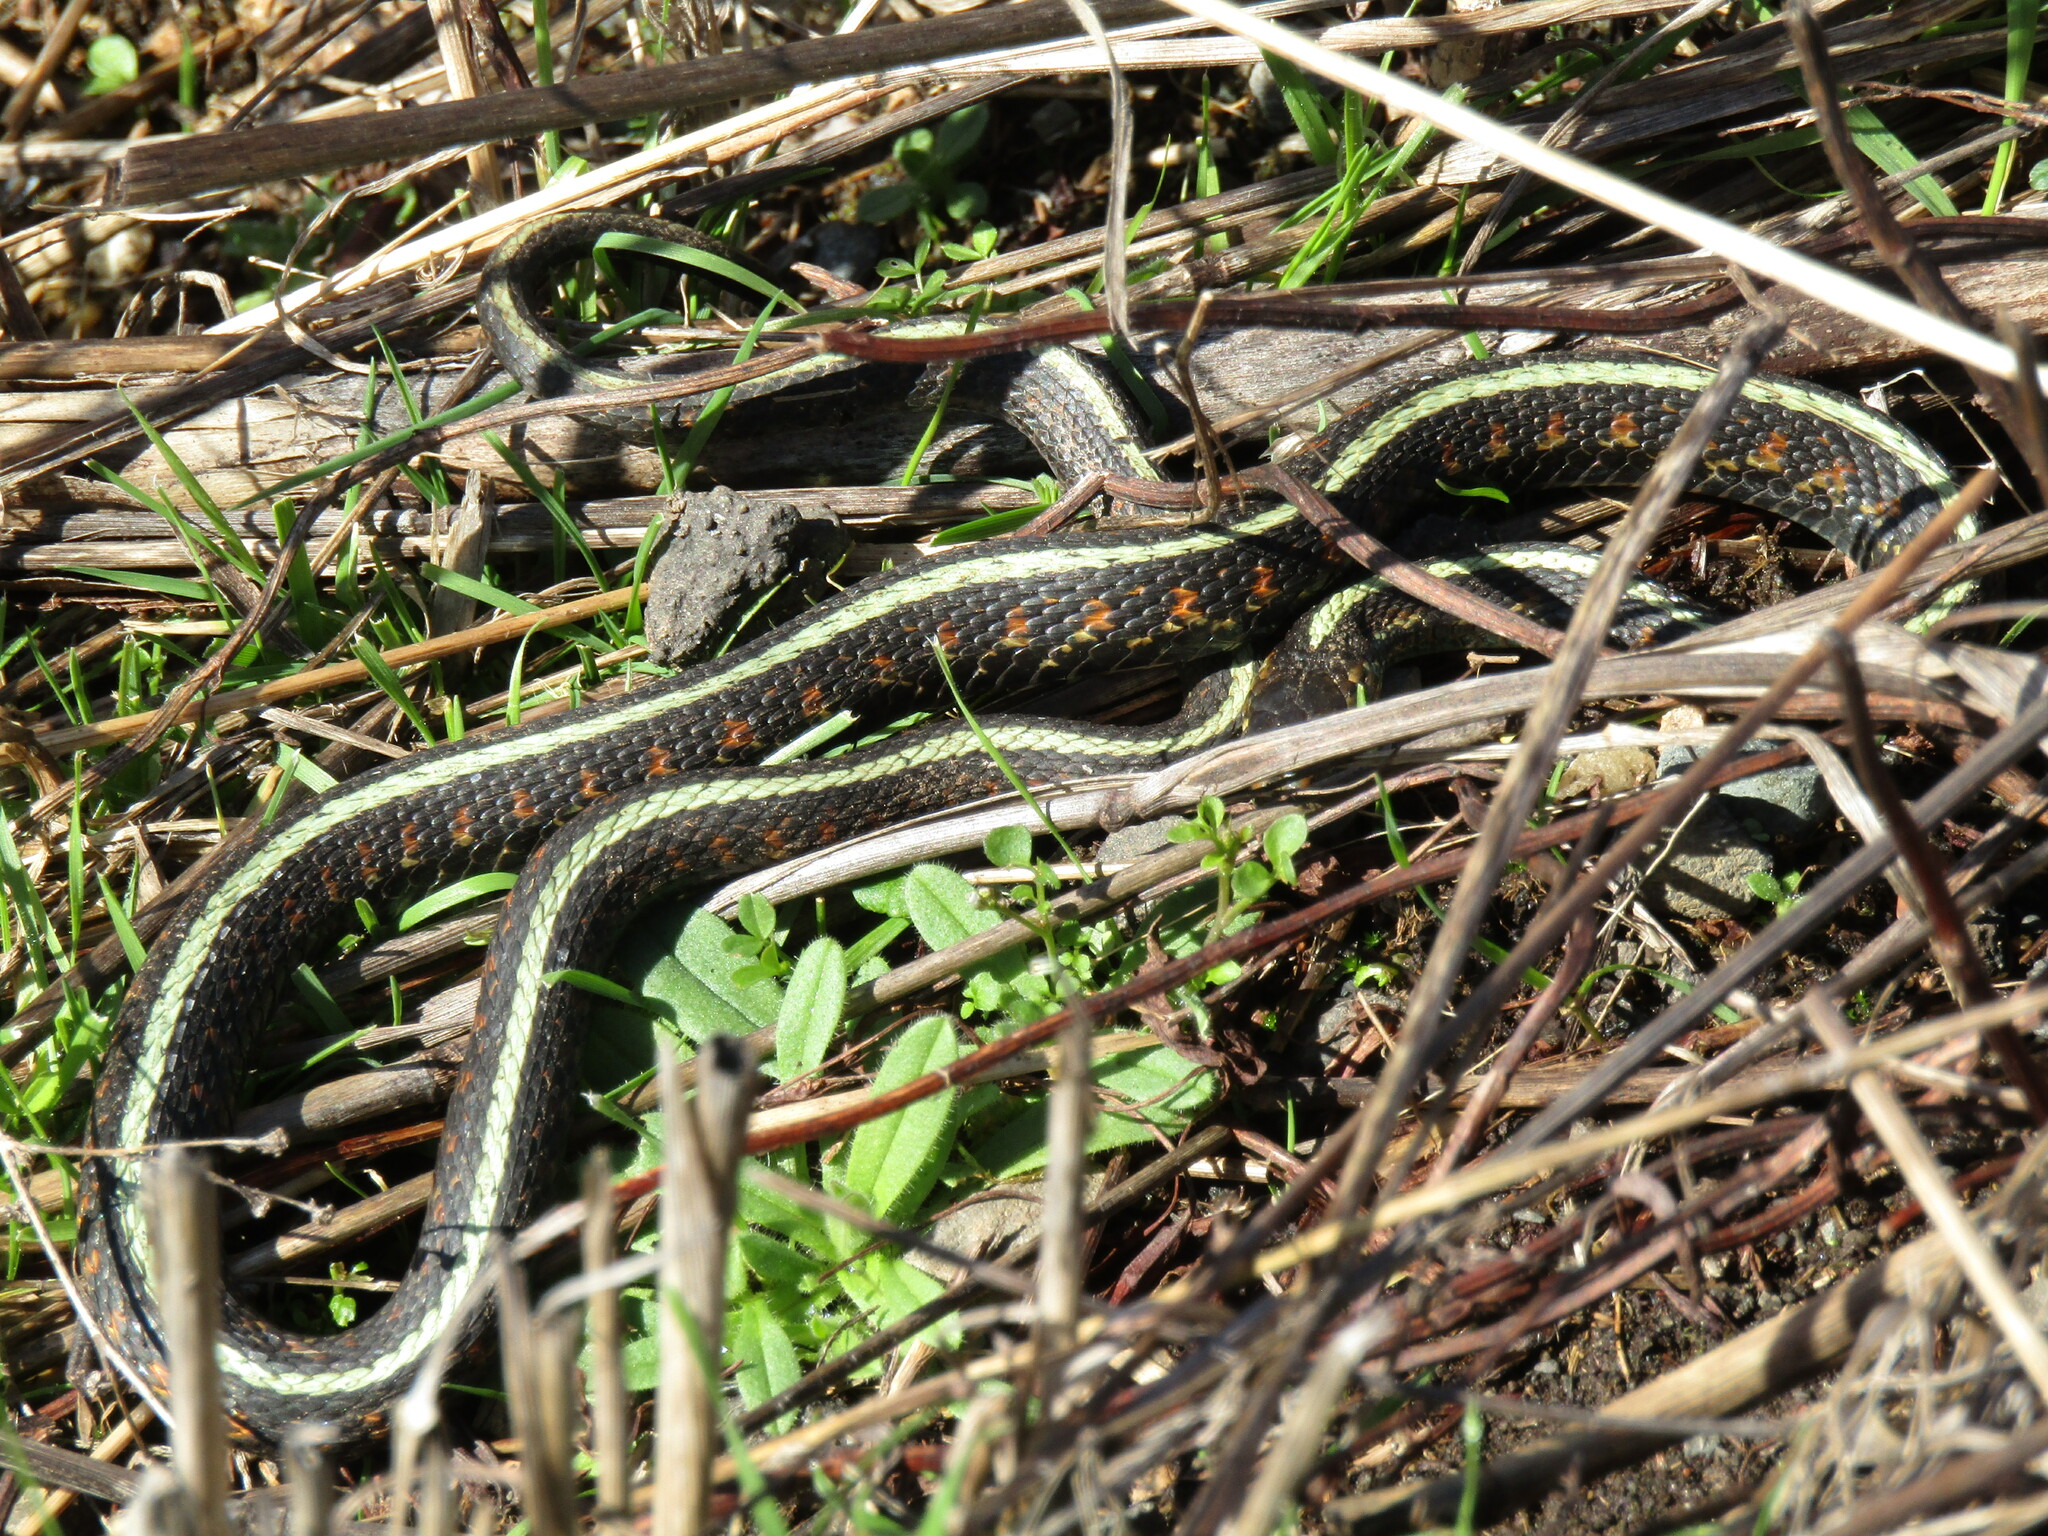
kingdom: Animalia
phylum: Chordata
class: Squamata
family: Colubridae
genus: Thamnophis
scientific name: Thamnophis sirtalis
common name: Common garter snake
